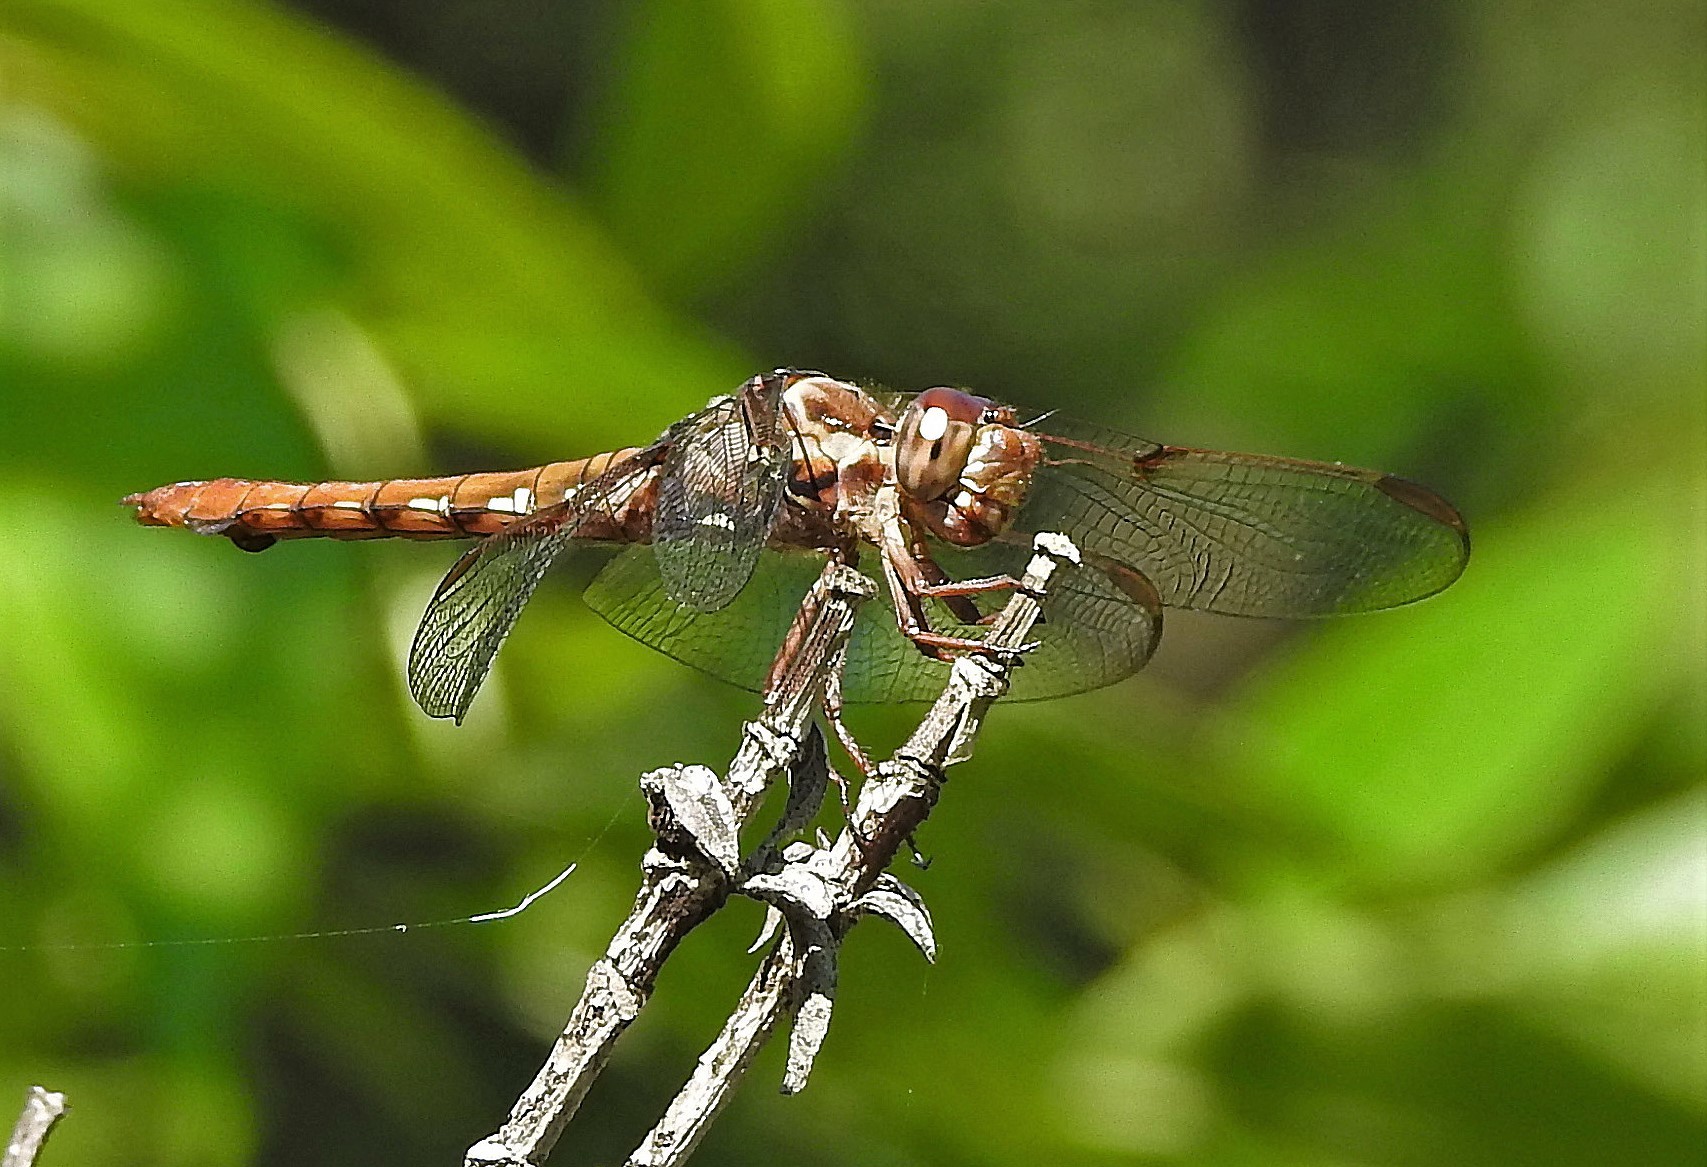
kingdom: Animalia
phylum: Arthropoda
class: Insecta
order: Odonata
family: Libellulidae
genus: Orthemis
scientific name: Orthemis nodiplaga
